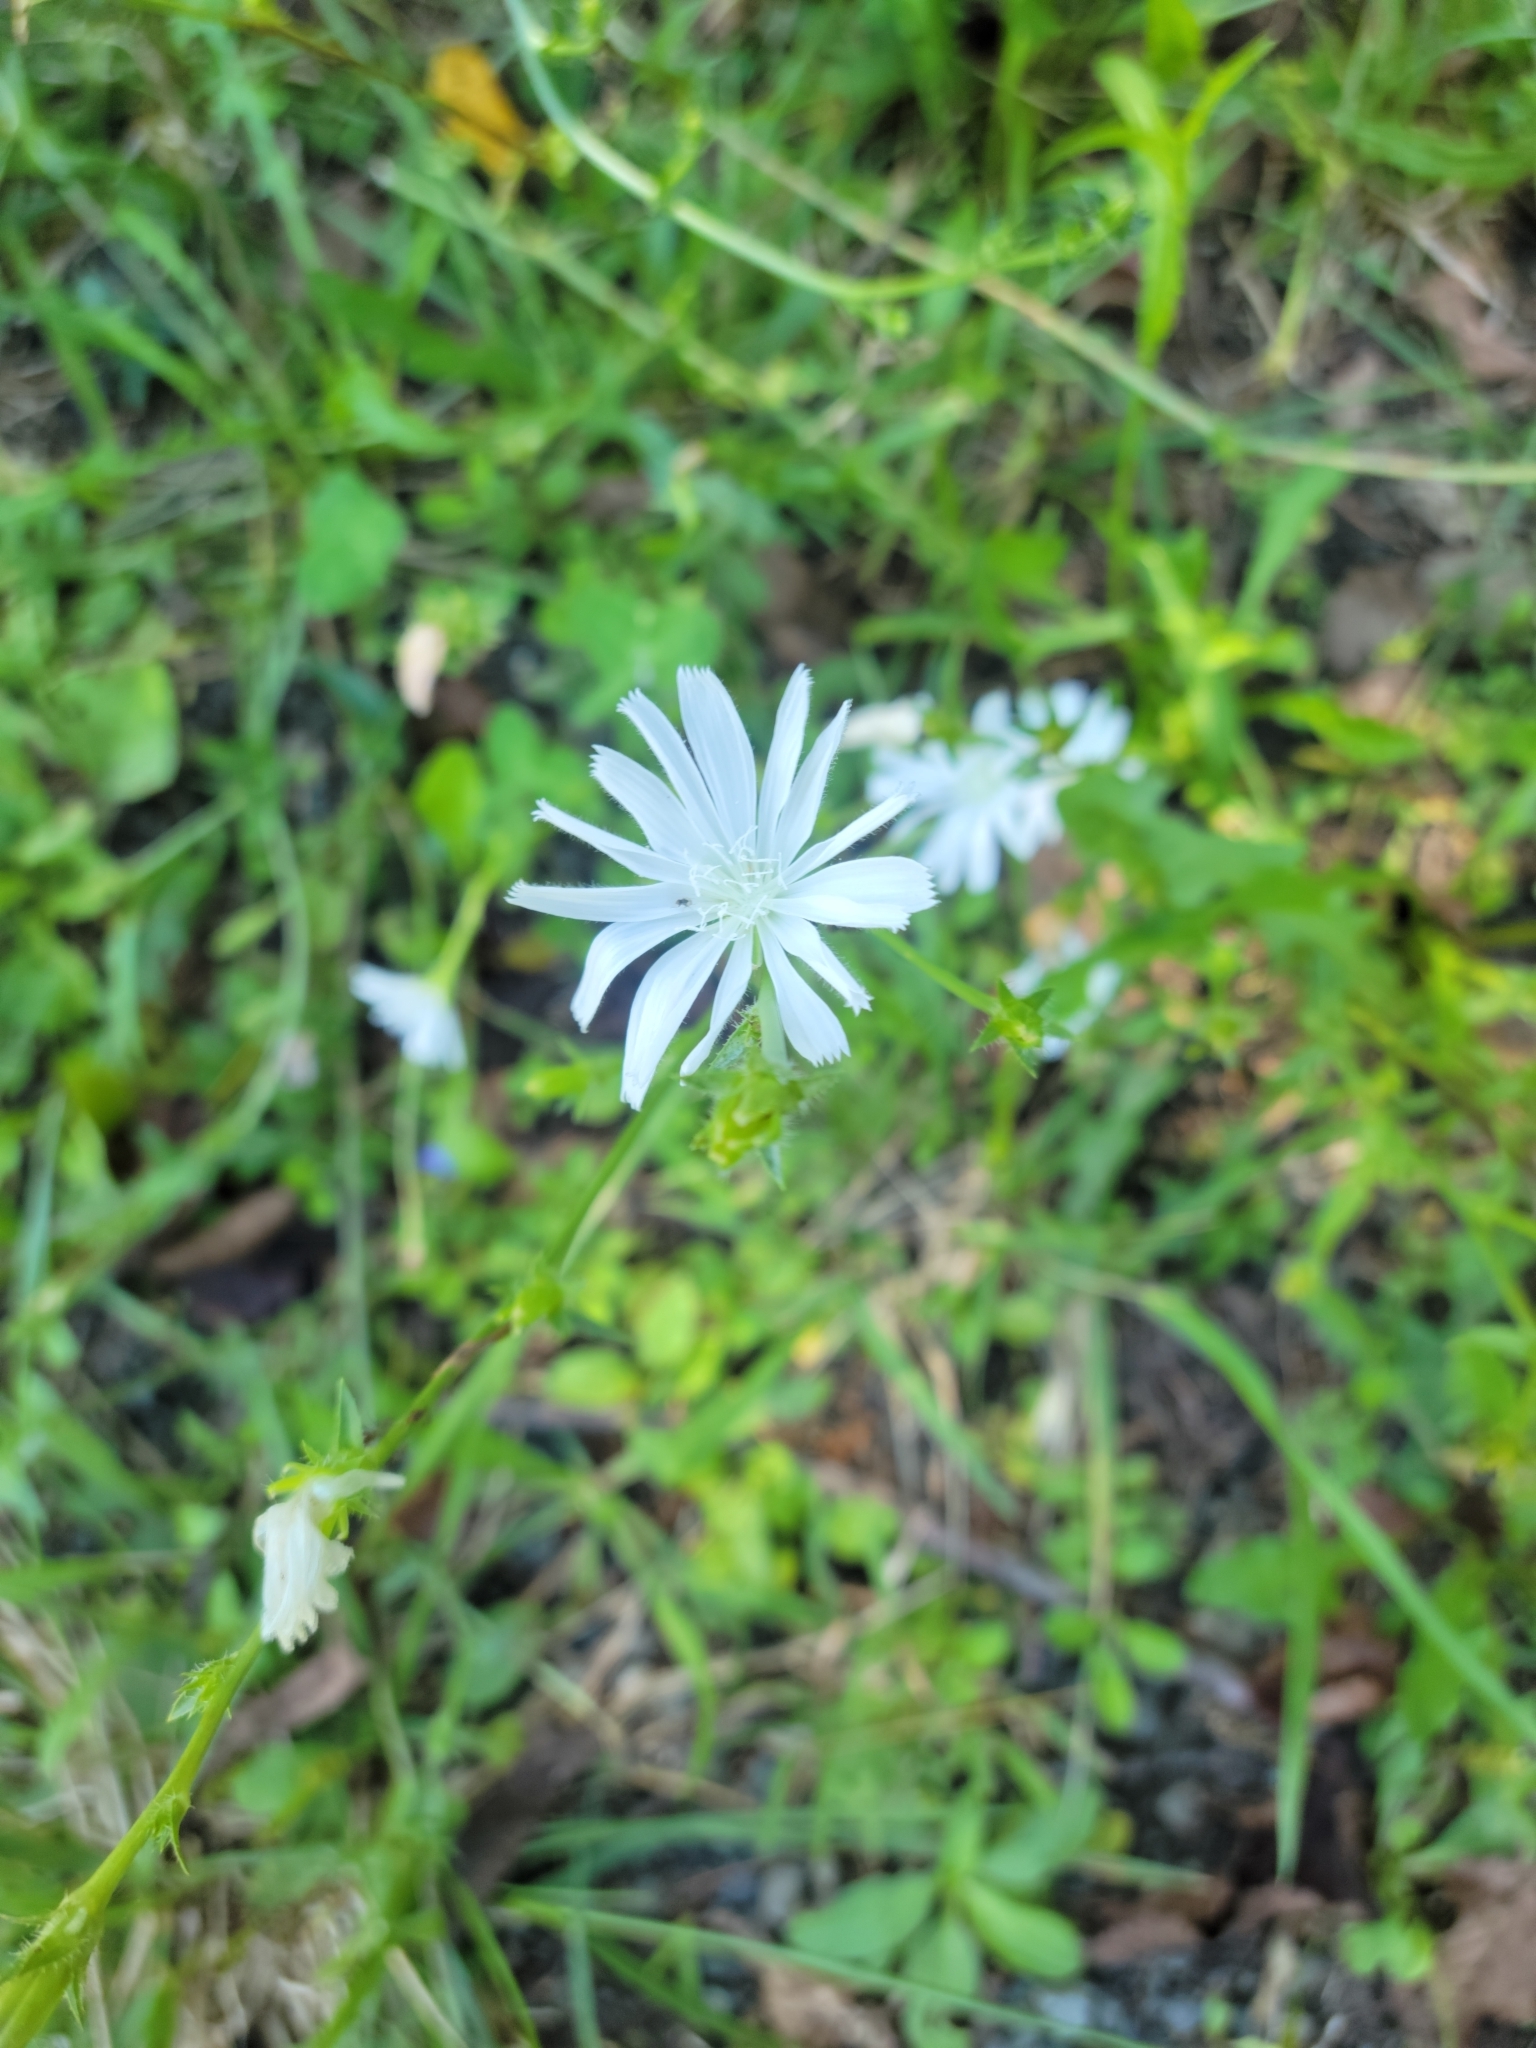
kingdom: Plantae
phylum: Tracheophyta
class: Magnoliopsida
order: Asterales
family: Asteraceae
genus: Cichorium
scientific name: Cichorium intybus
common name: Chicory
